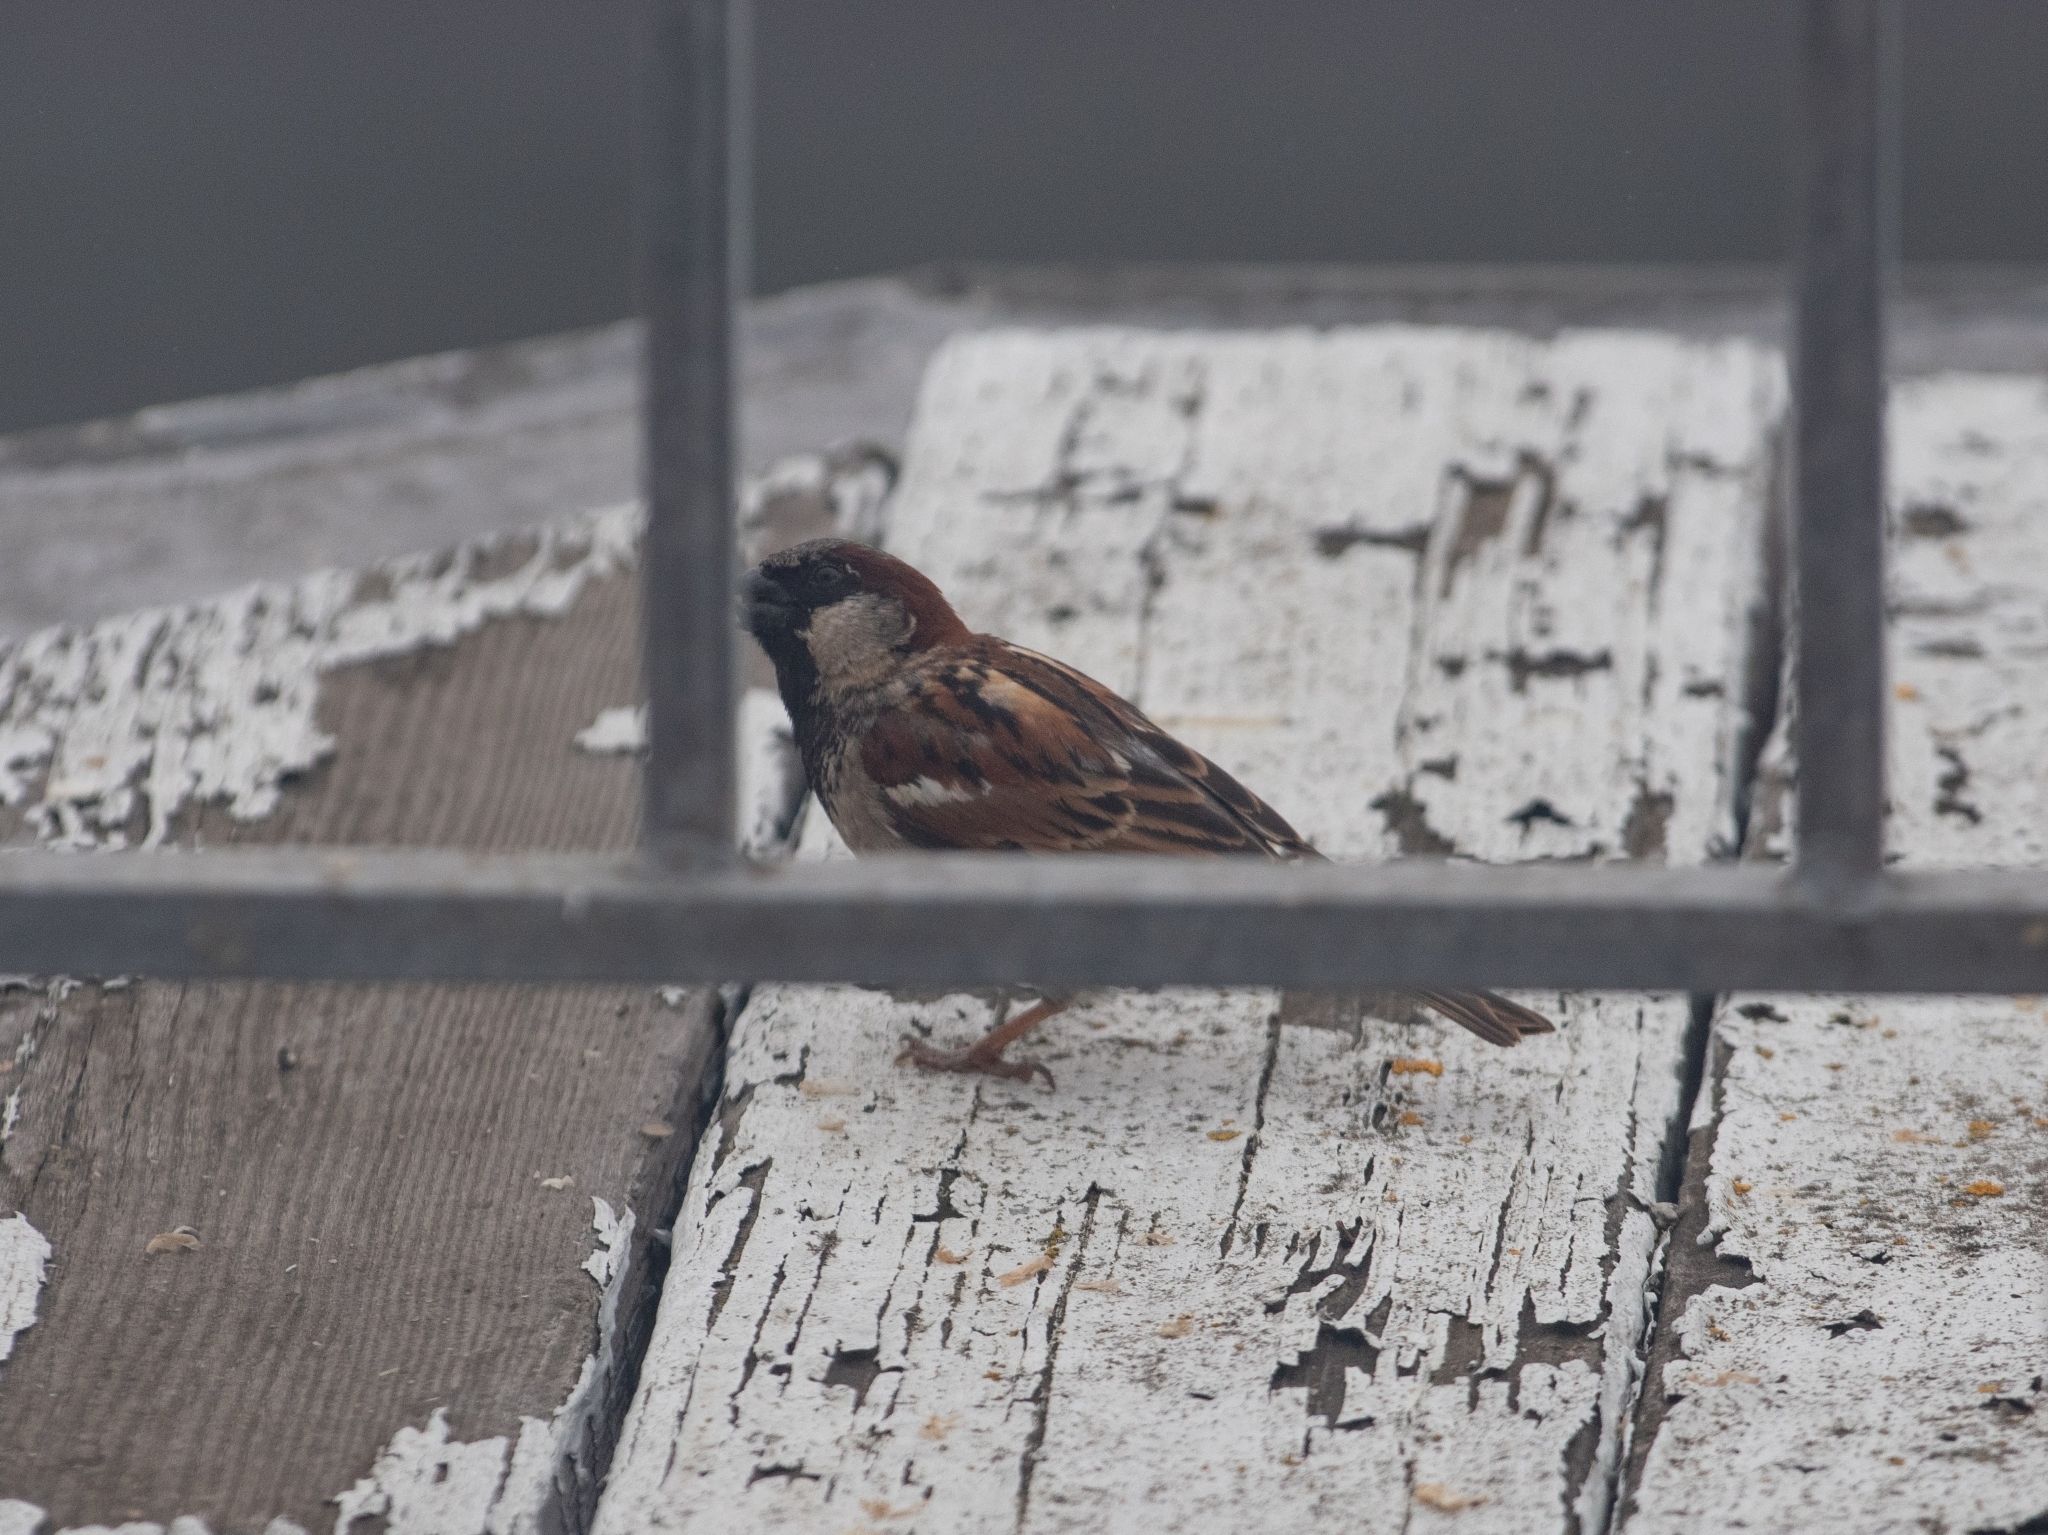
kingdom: Animalia
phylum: Chordata
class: Aves
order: Passeriformes
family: Passeridae
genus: Passer
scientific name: Passer domesticus
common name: House sparrow
